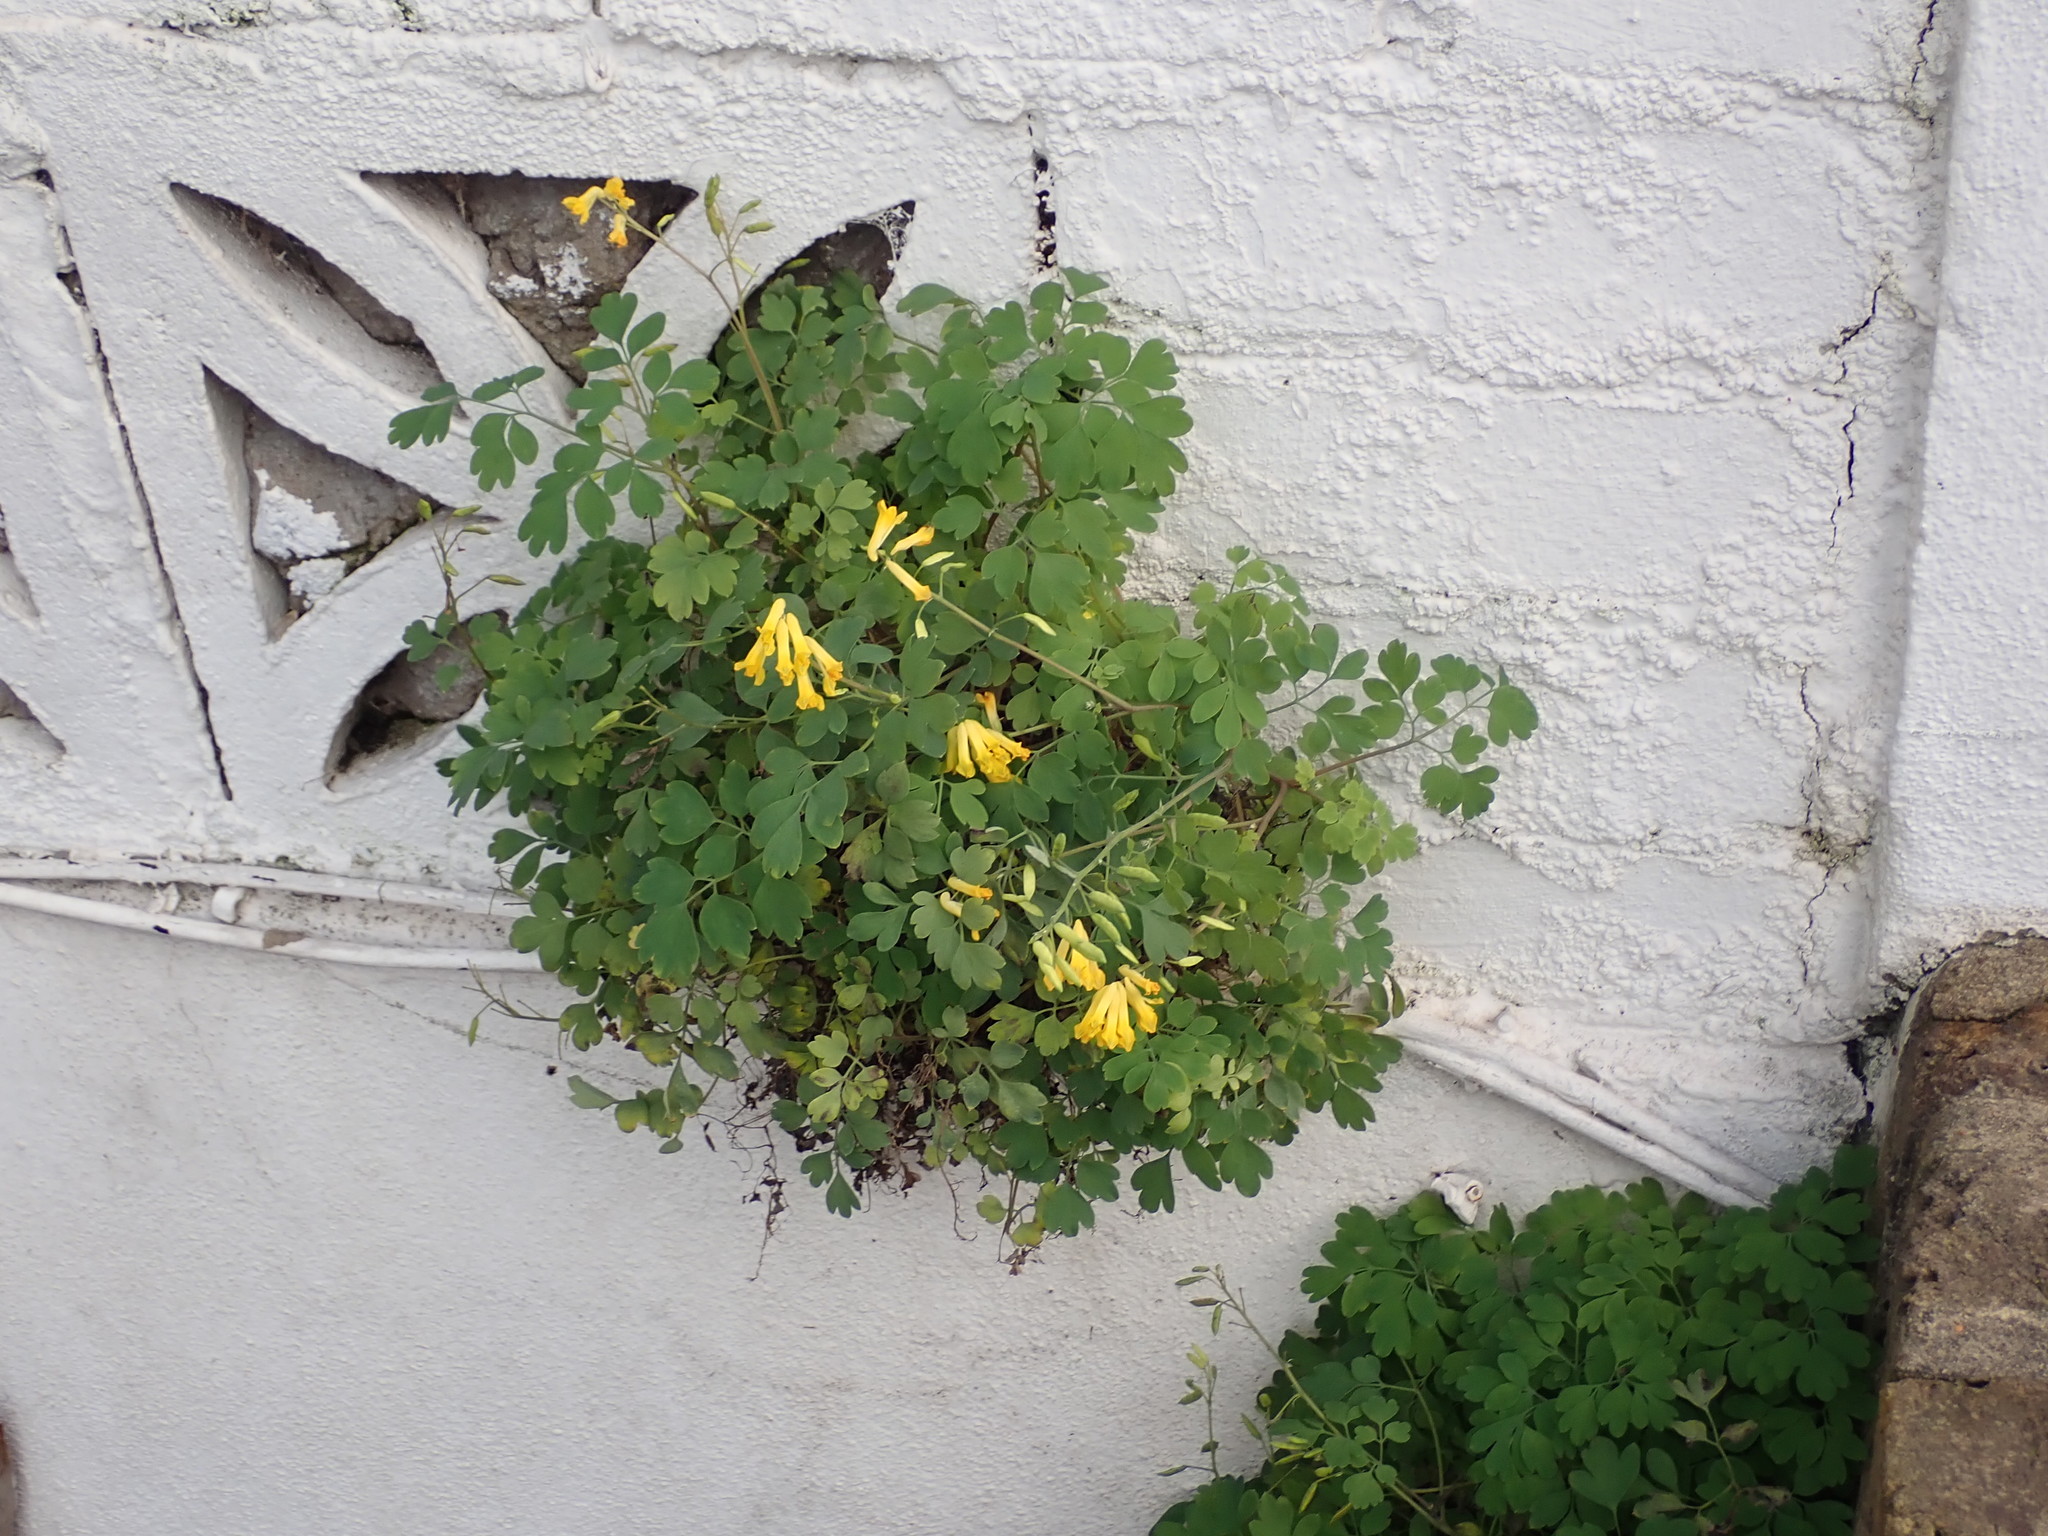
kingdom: Plantae
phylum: Tracheophyta
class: Magnoliopsida
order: Ranunculales
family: Papaveraceae
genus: Pseudofumaria
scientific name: Pseudofumaria lutea
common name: Yellow corydalis
